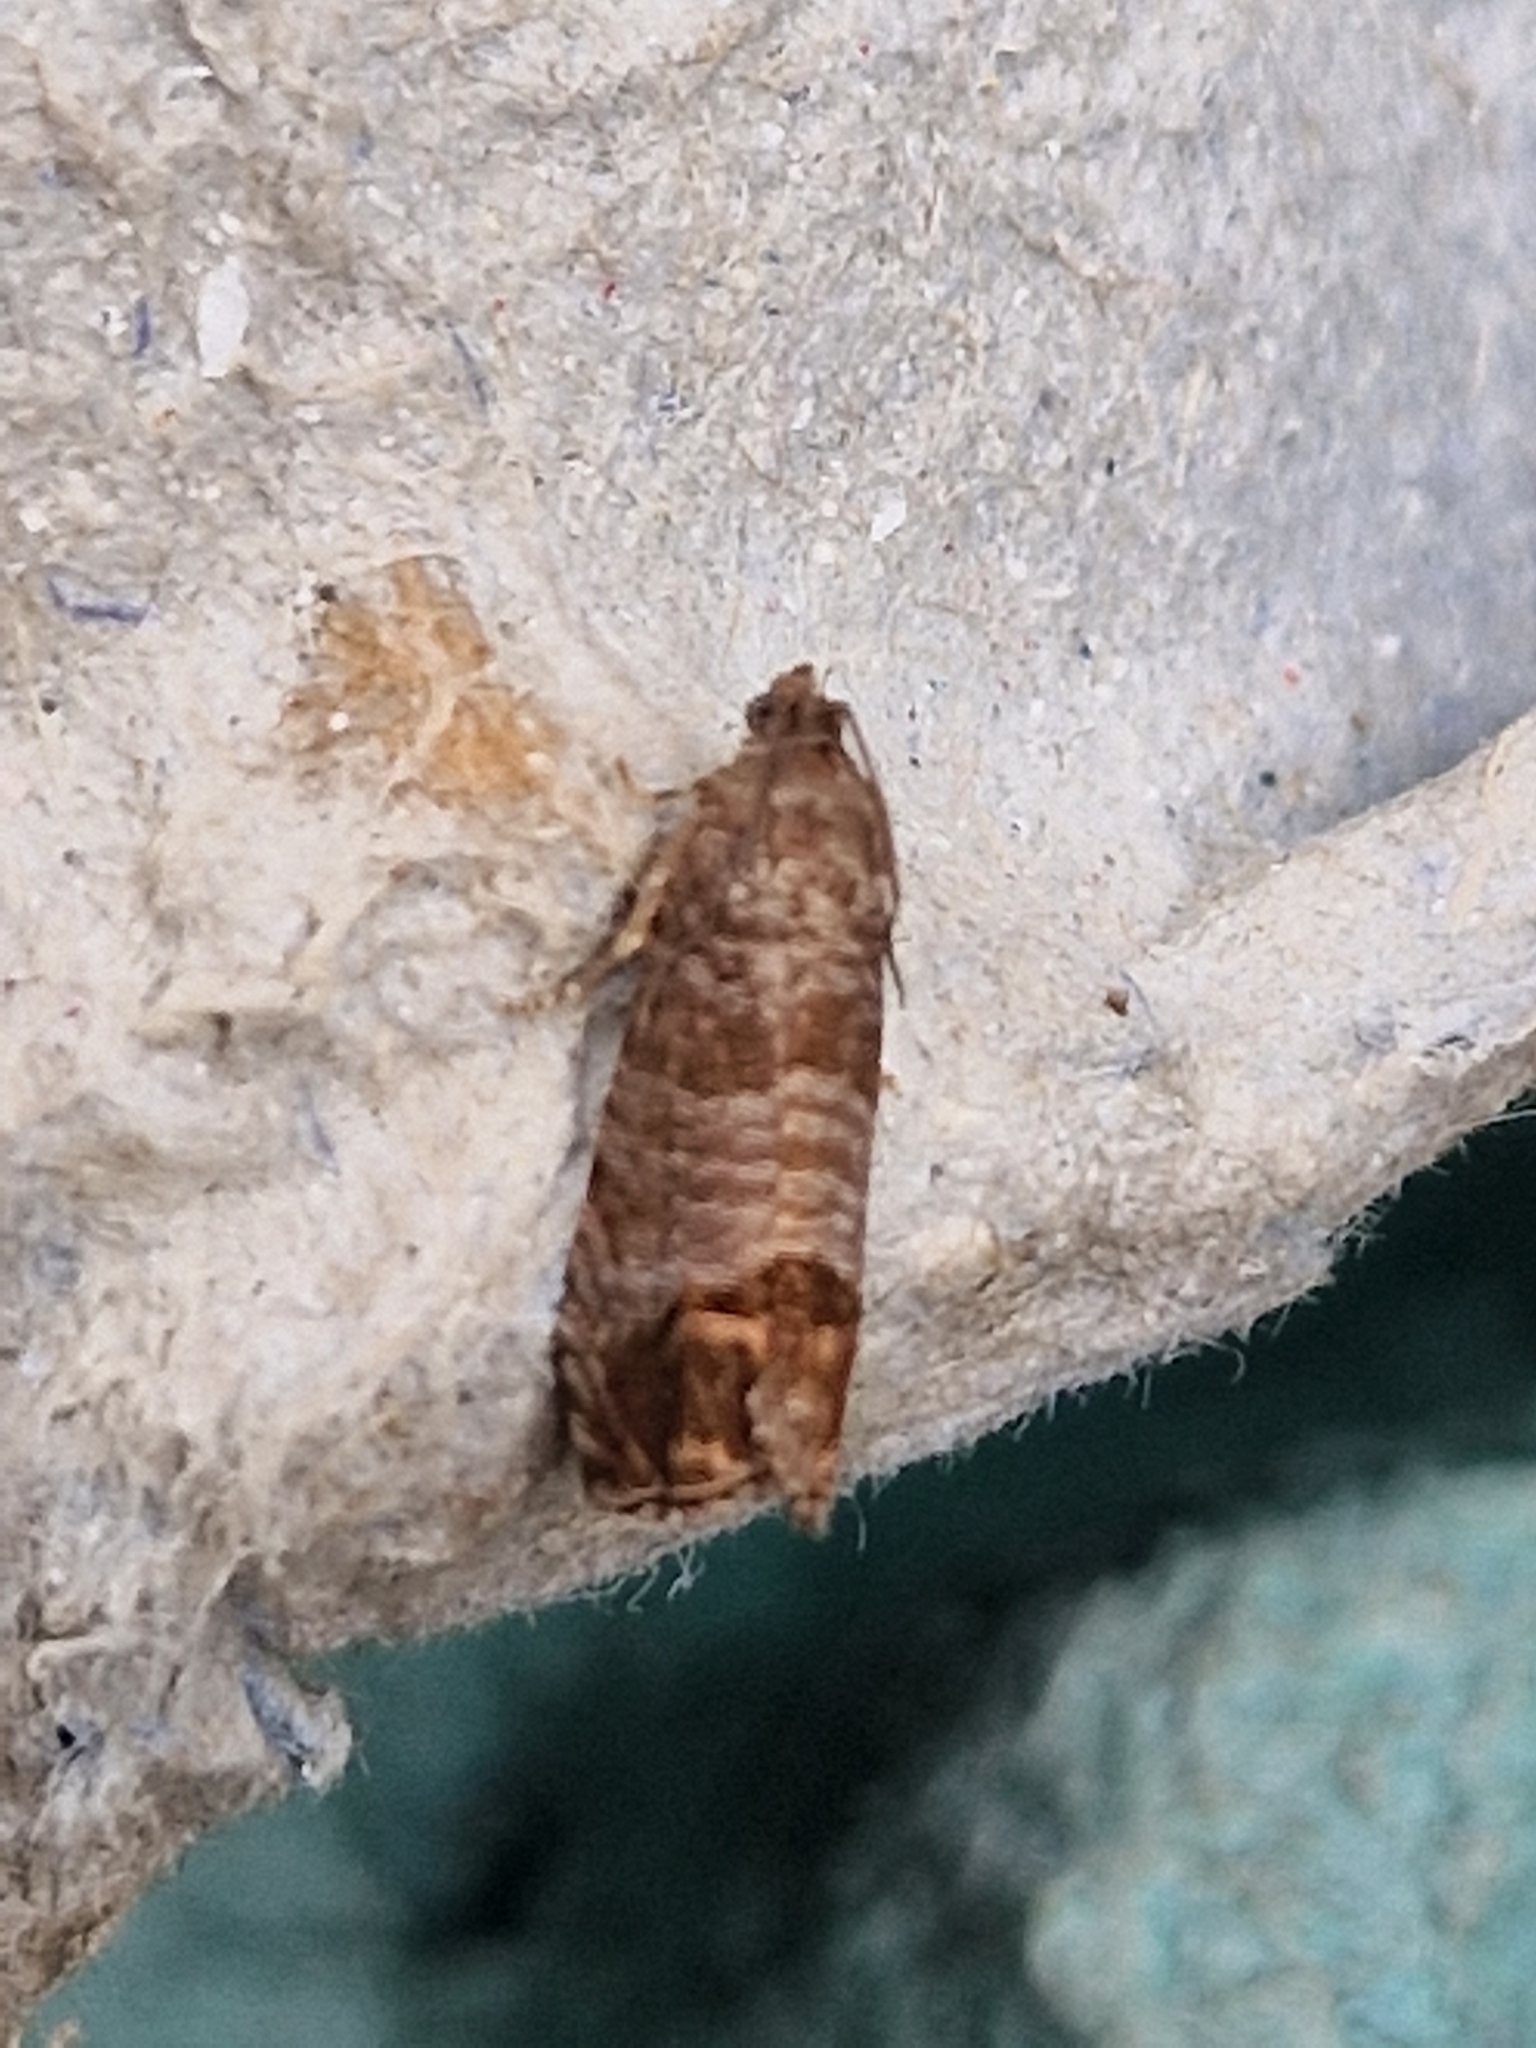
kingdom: Animalia
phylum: Arthropoda
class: Insecta
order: Lepidoptera
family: Tortricidae
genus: Cydia
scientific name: Cydia pomonella
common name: Codling moth
